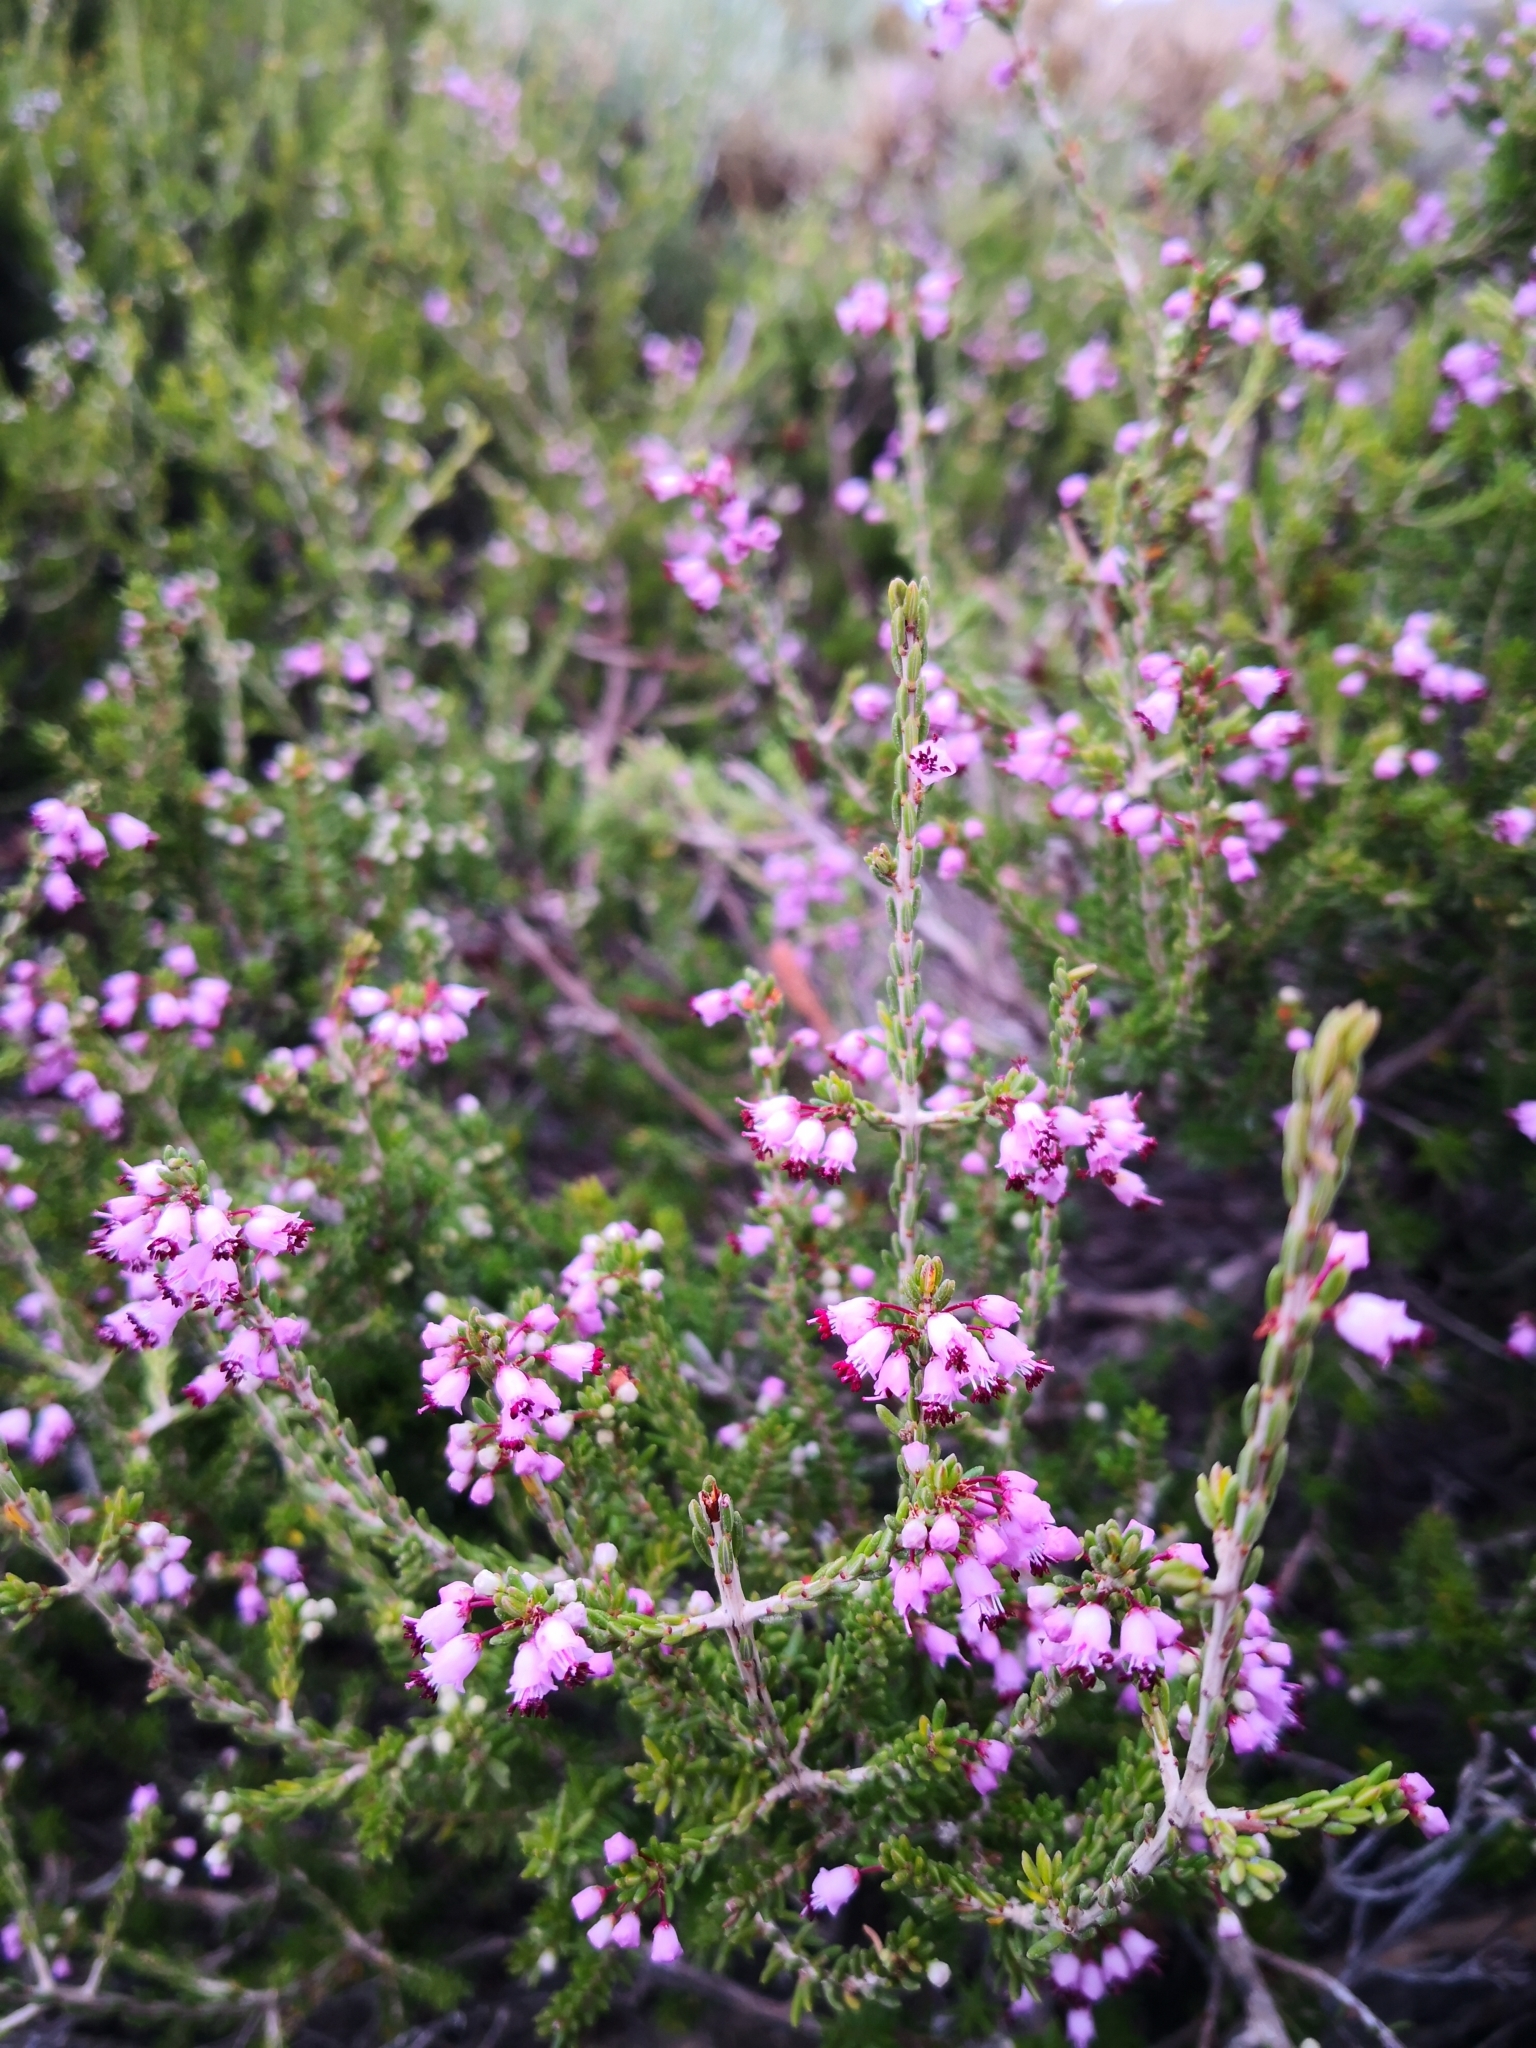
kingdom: Plantae
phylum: Tracheophyta
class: Magnoliopsida
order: Ericales
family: Ericaceae
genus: Erica
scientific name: Erica manipuliflora
